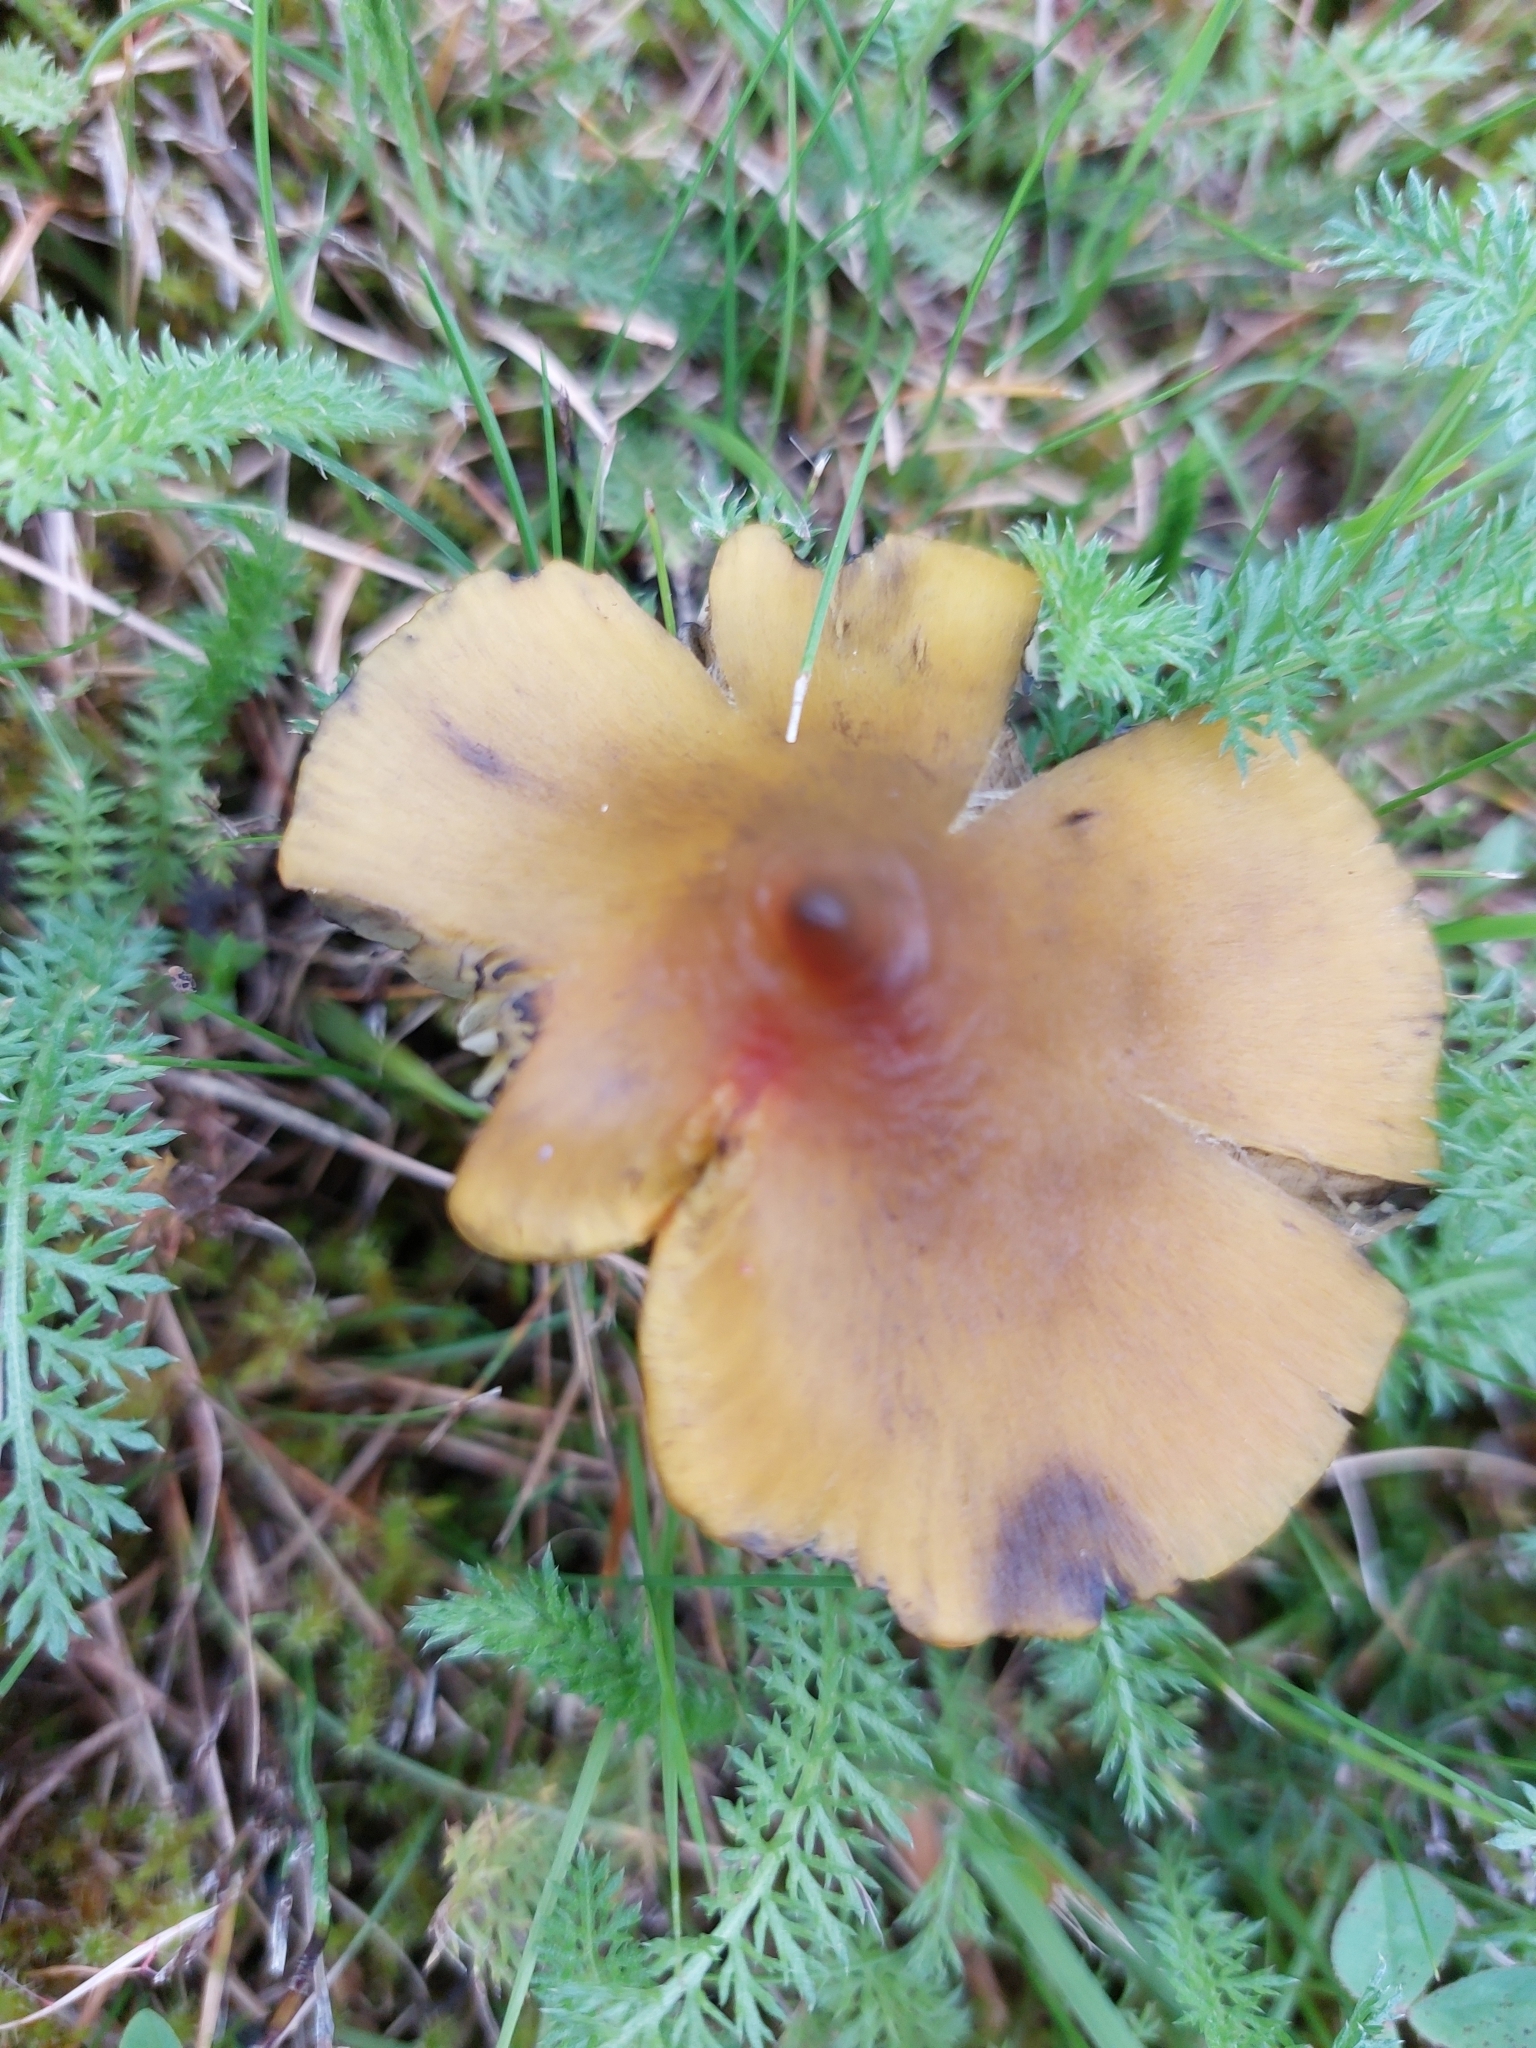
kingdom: Fungi
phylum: Basidiomycota
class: Agaricomycetes
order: Agaricales
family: Hygrophoraceae
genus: Hygrocybe
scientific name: Hygrocybe conica
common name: Blackening wax-cap
